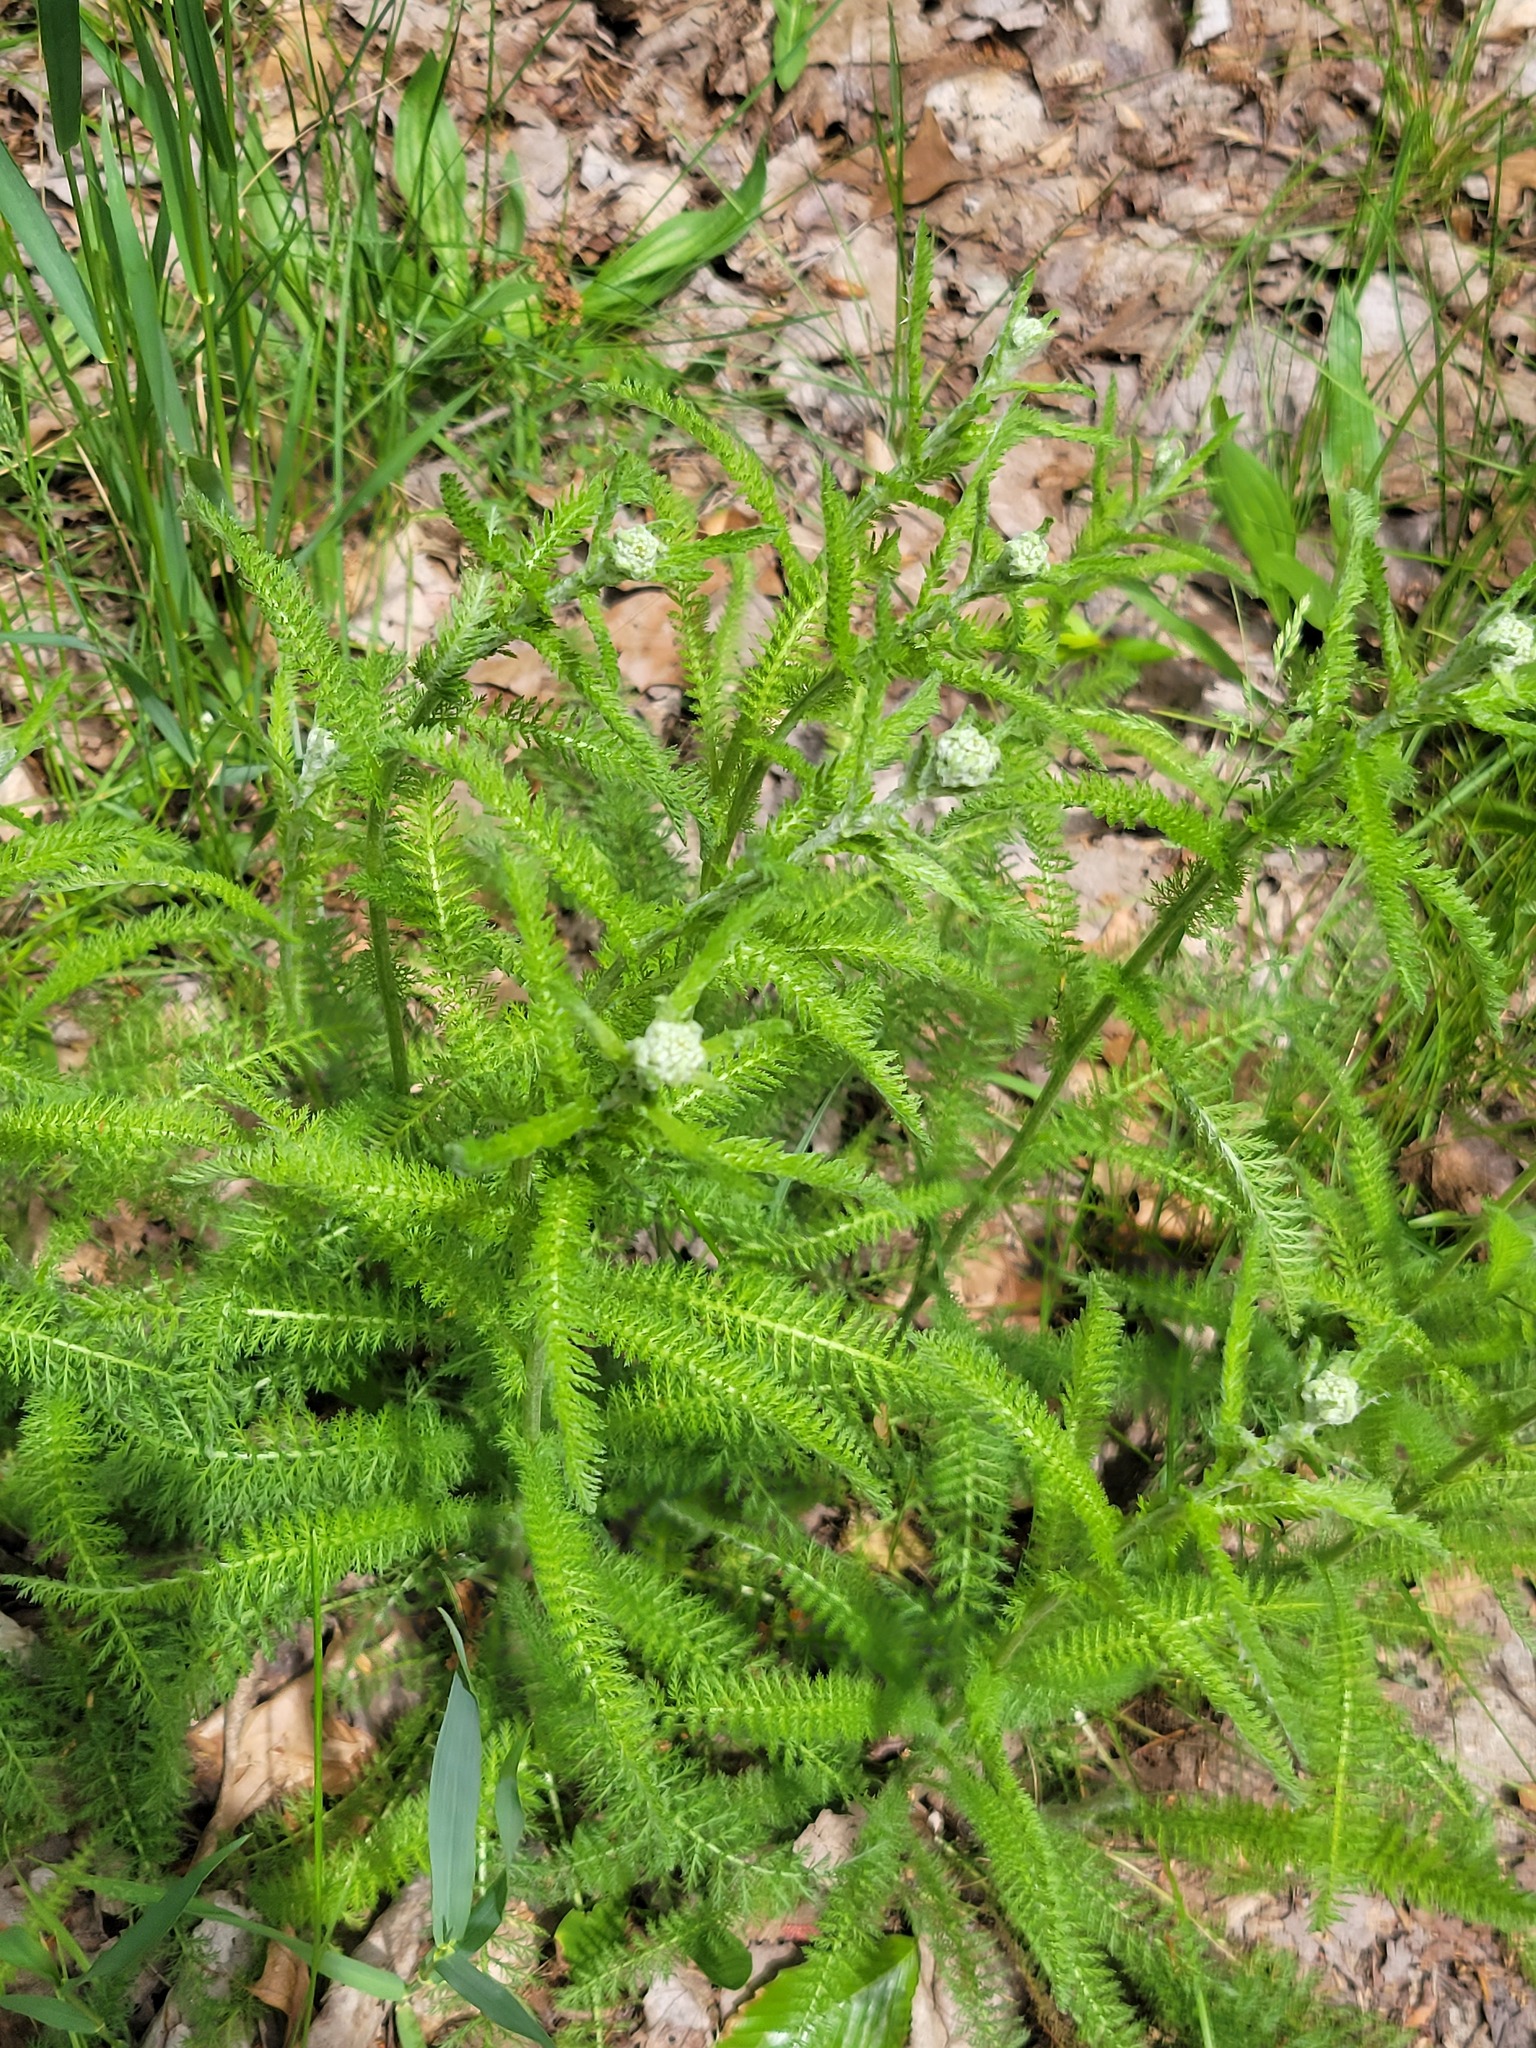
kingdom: Plantae
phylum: Tracheophyta
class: Magnoliopsida
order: Asterales
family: Asteraceae
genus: Achillea
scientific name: Achillea millefolium
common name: Yarrow
